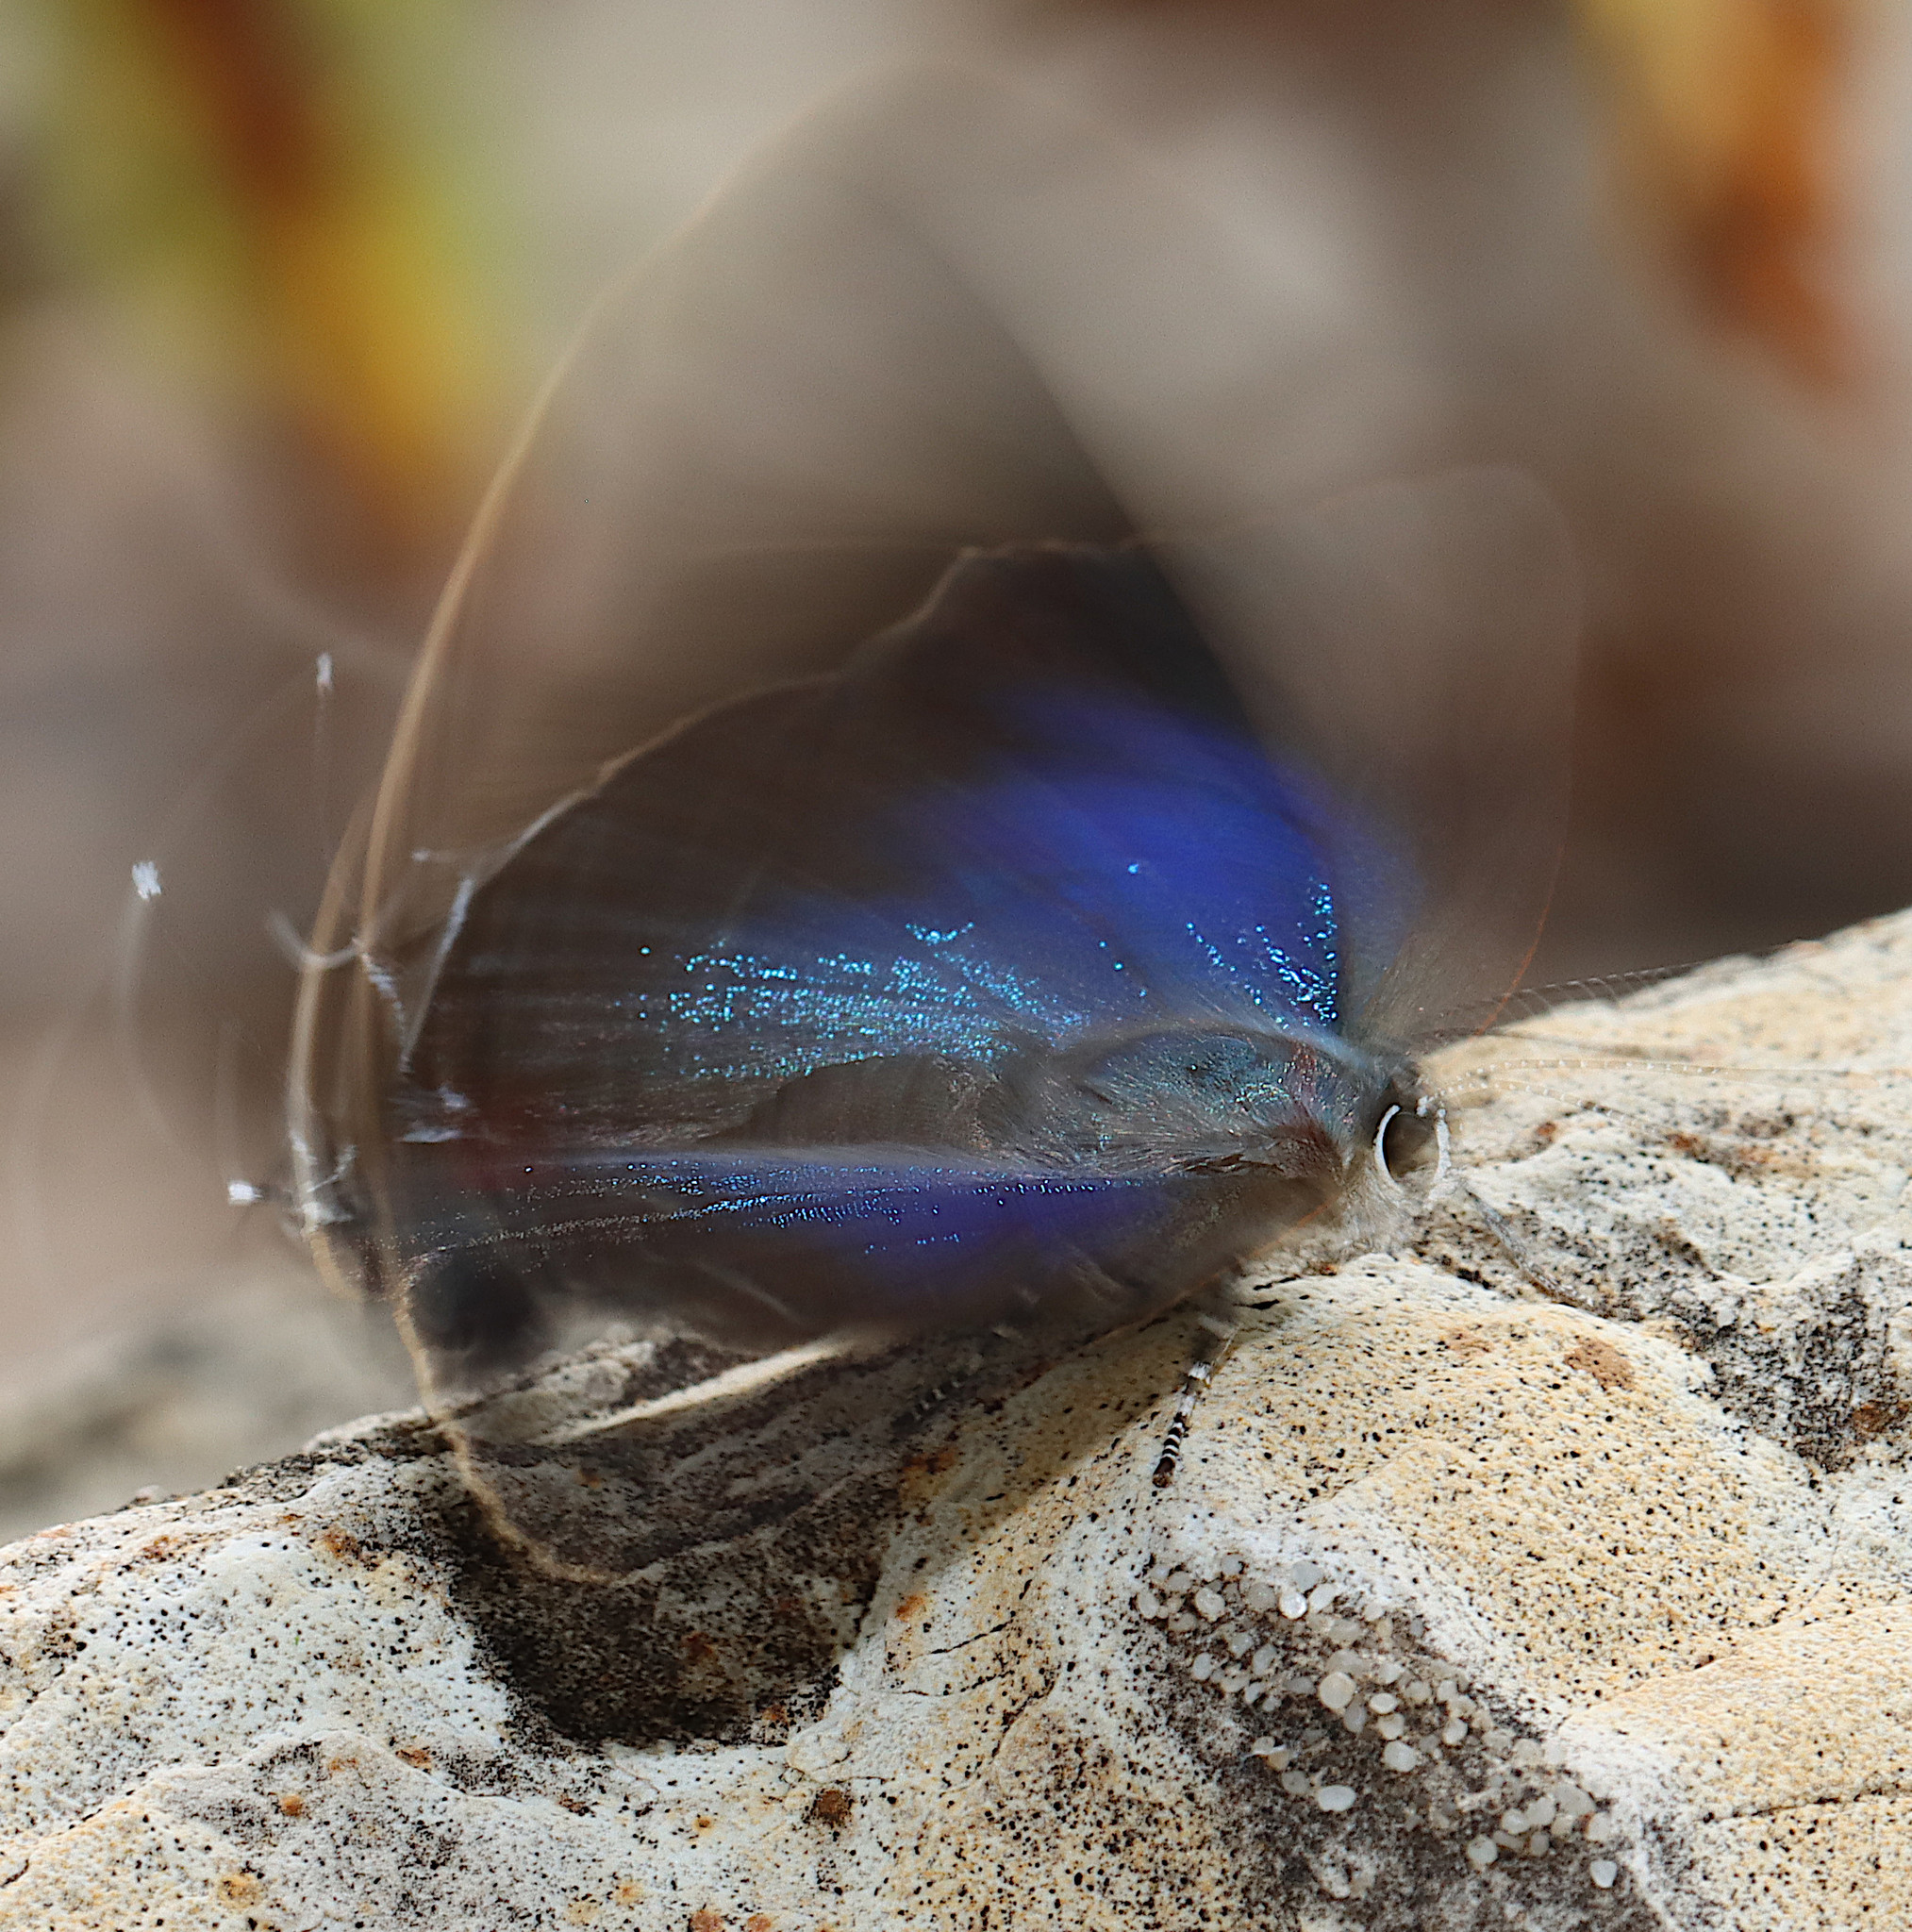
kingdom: Animalia
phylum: Arthropoda
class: Insecta
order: Lepidoptera
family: Lycaenidae
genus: Parrhasius
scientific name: Parrhasius m-album
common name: White m hairstreak
